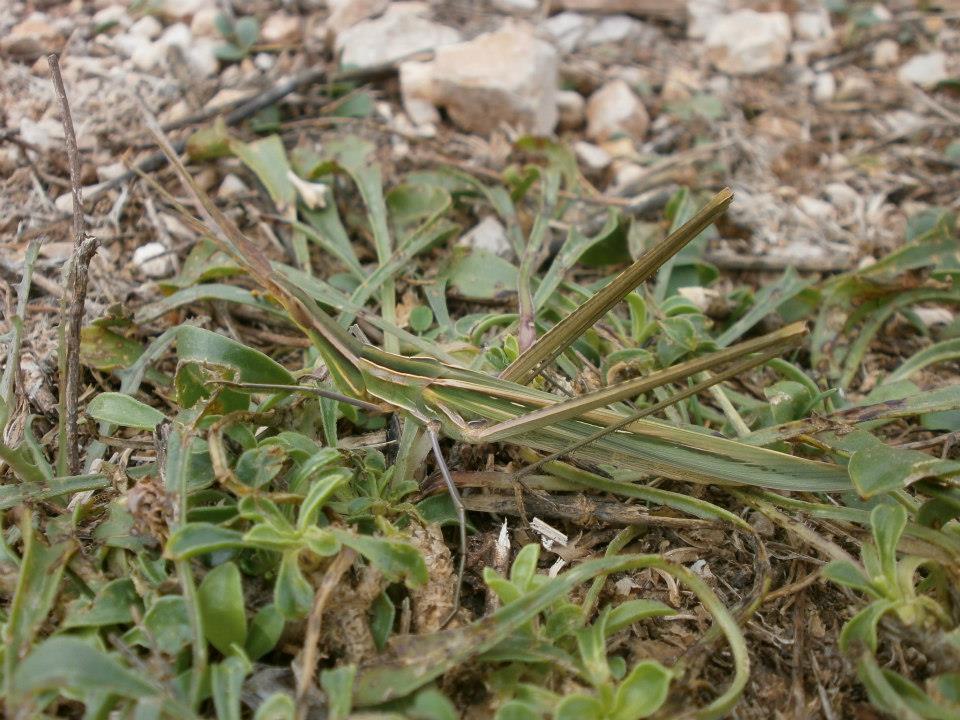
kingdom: Animalia
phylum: Arthropoda
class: Insecta
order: Orthoptera
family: Acrididae
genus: Acrida
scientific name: Acrida ungarica
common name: Common cone-headed grasshopper
